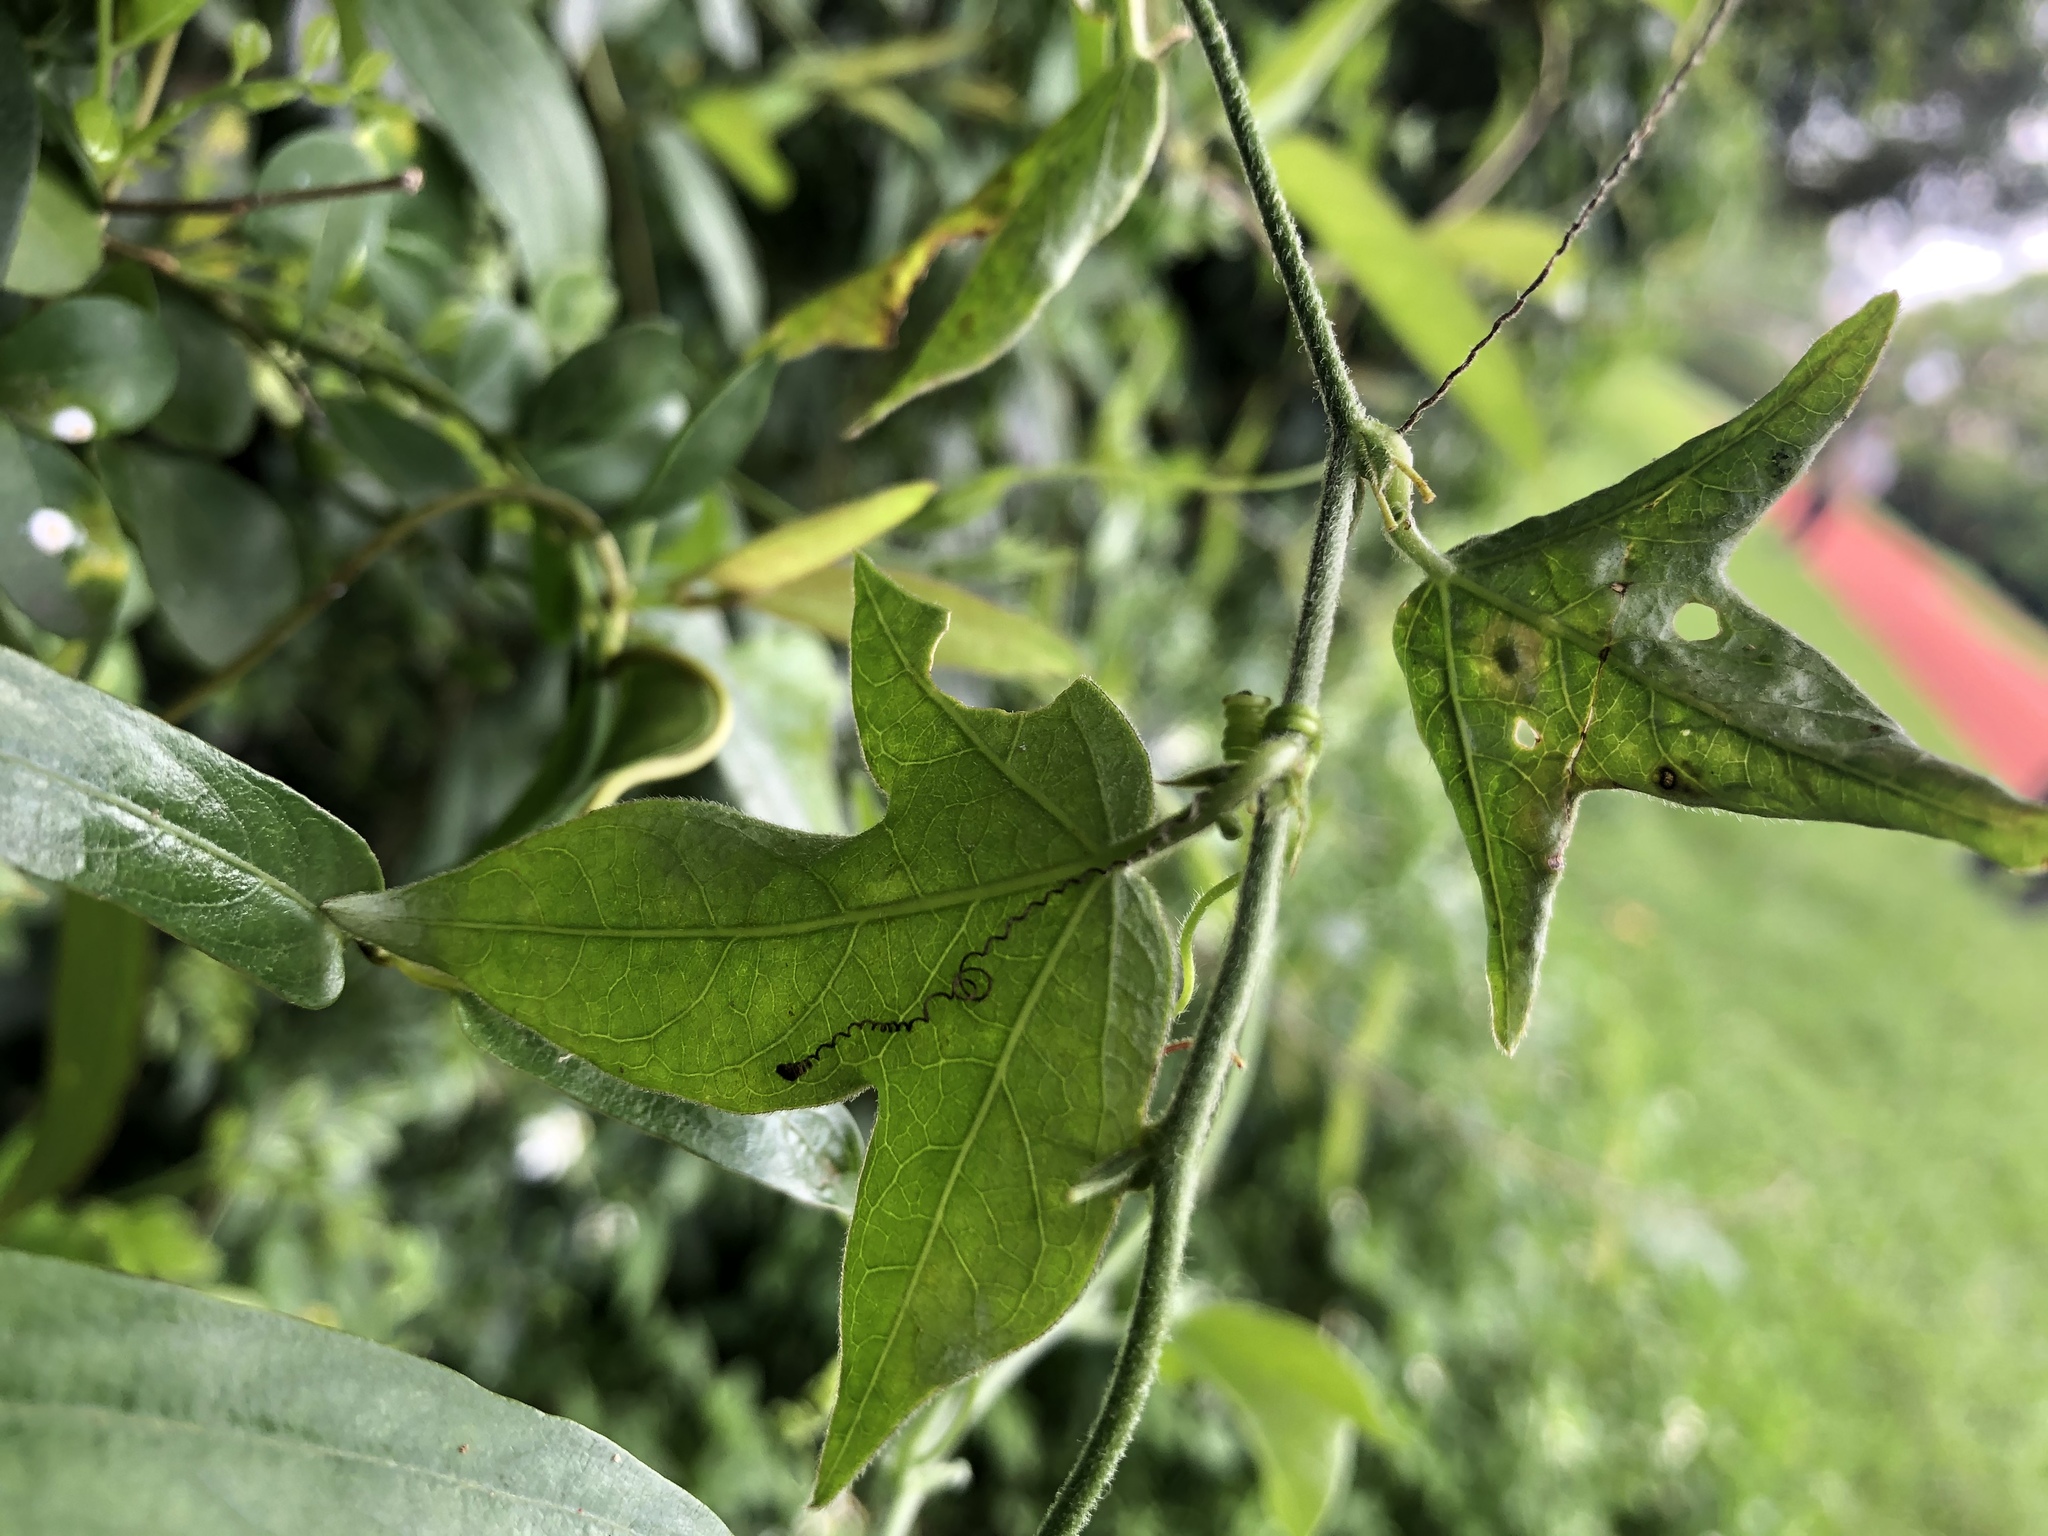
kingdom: Plantae
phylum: Tracheophyta
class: Magnoliopsida
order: Malpighiales
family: Passifloraceae
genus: Passiflora
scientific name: Passiflora suberosa
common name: Wild passionfruit
